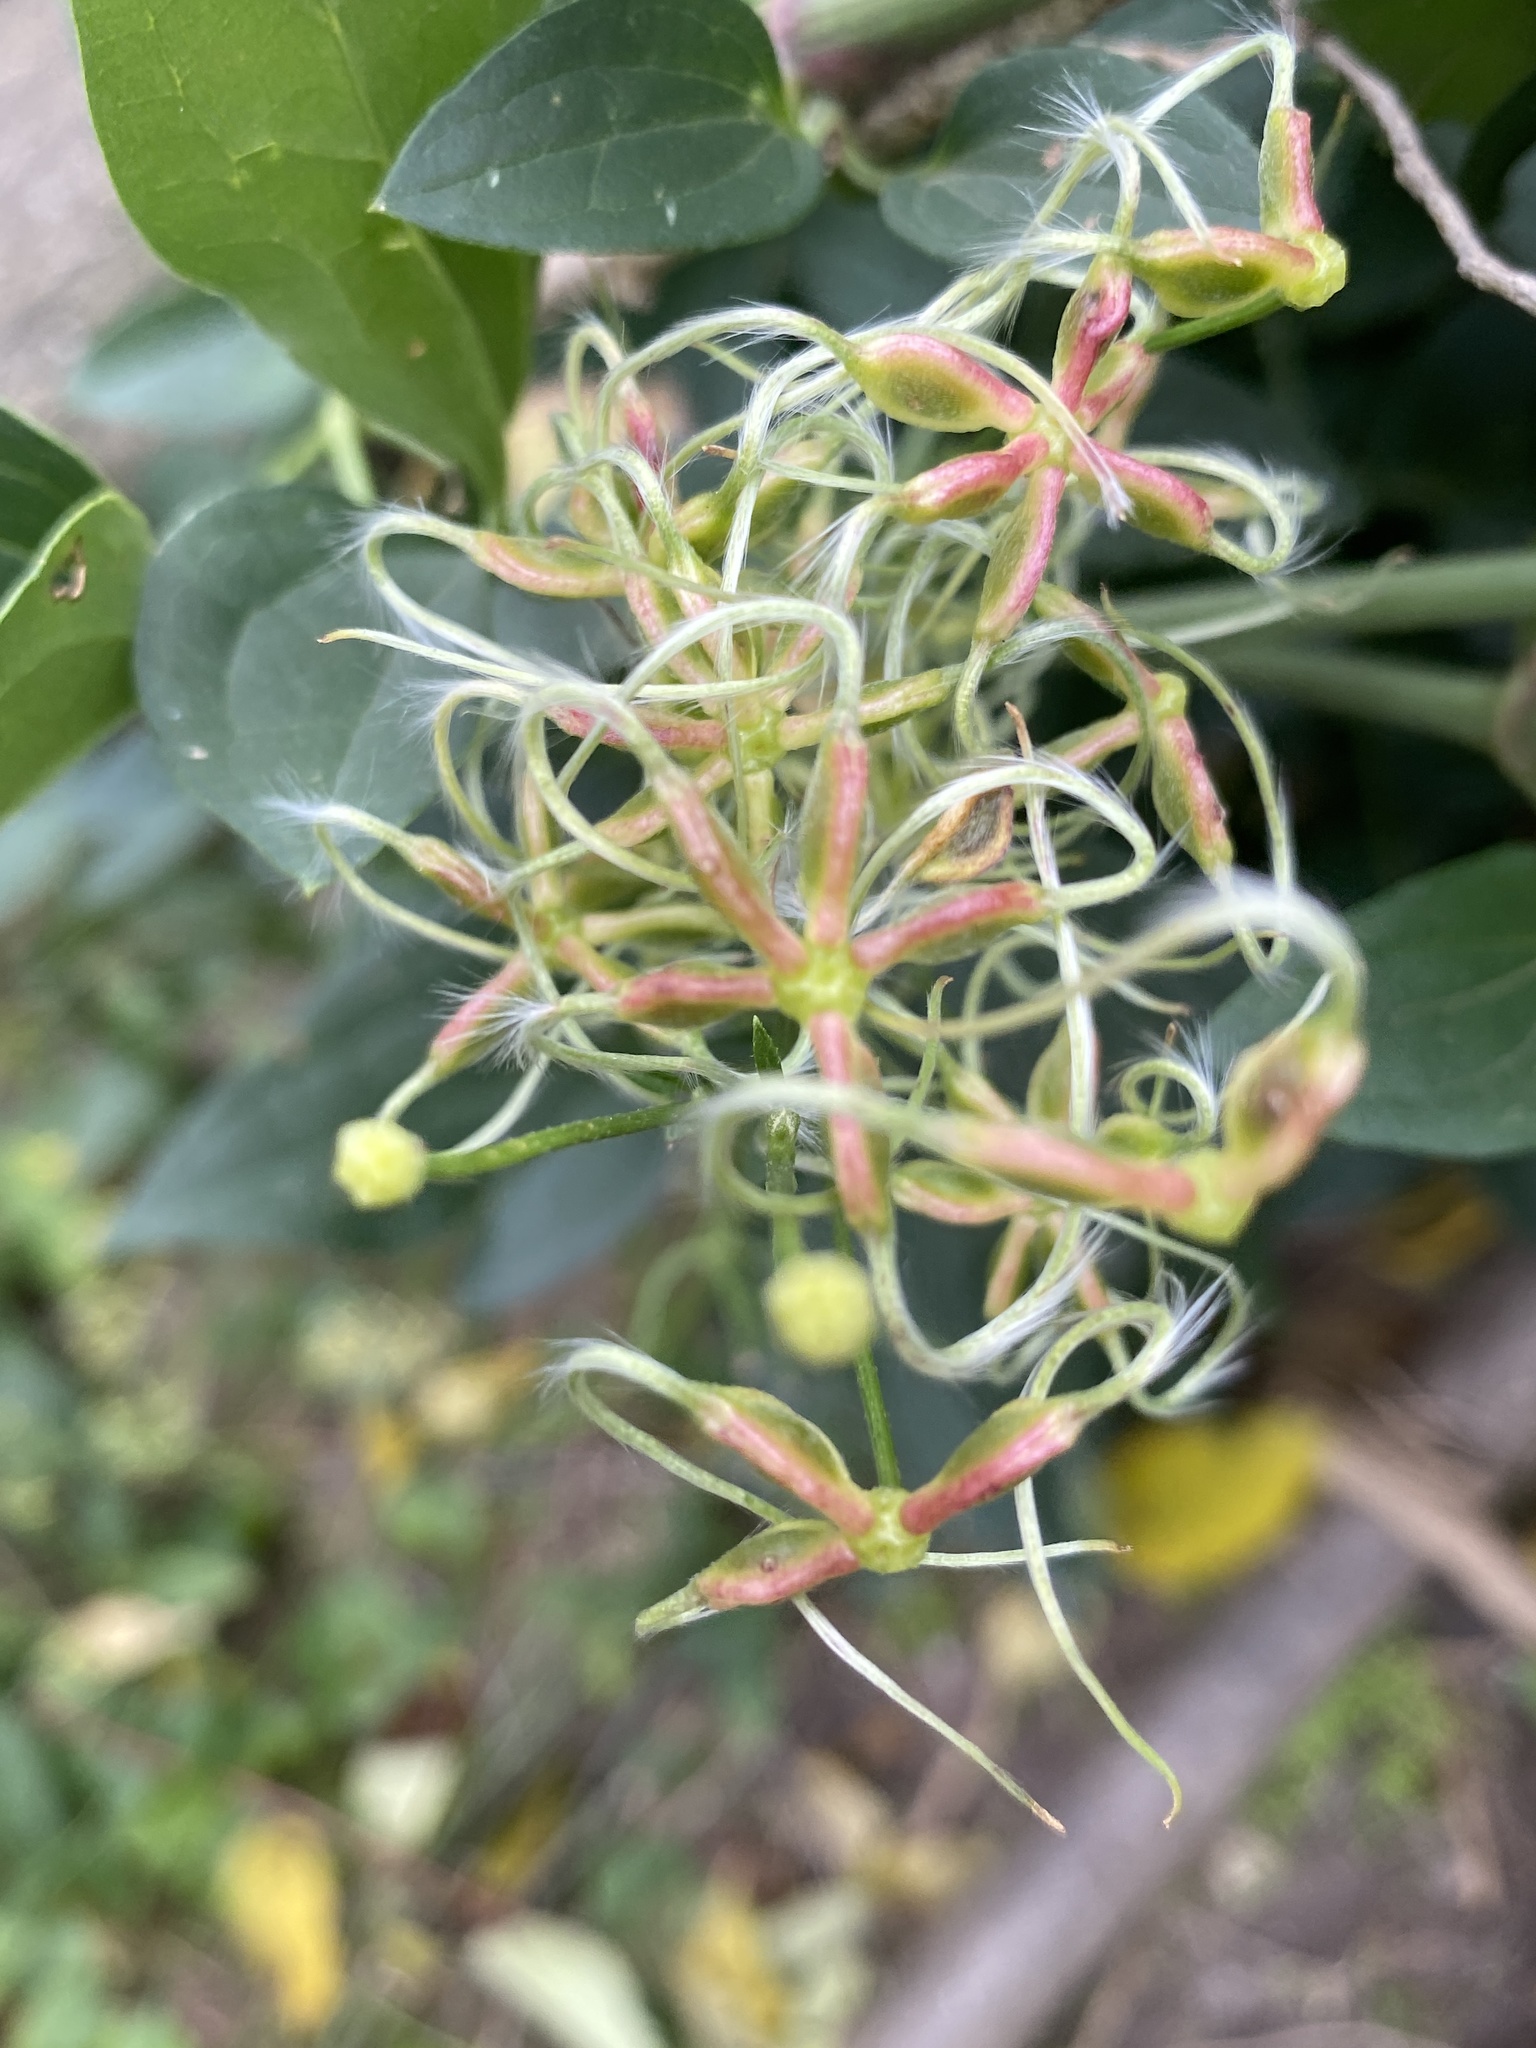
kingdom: Plantae
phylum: Tracheophyta
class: Magnoliopsida
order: Ranunculales
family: Ranunculaceae
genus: Clematis
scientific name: Clematis terniflora
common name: Sweet autumn clematis
